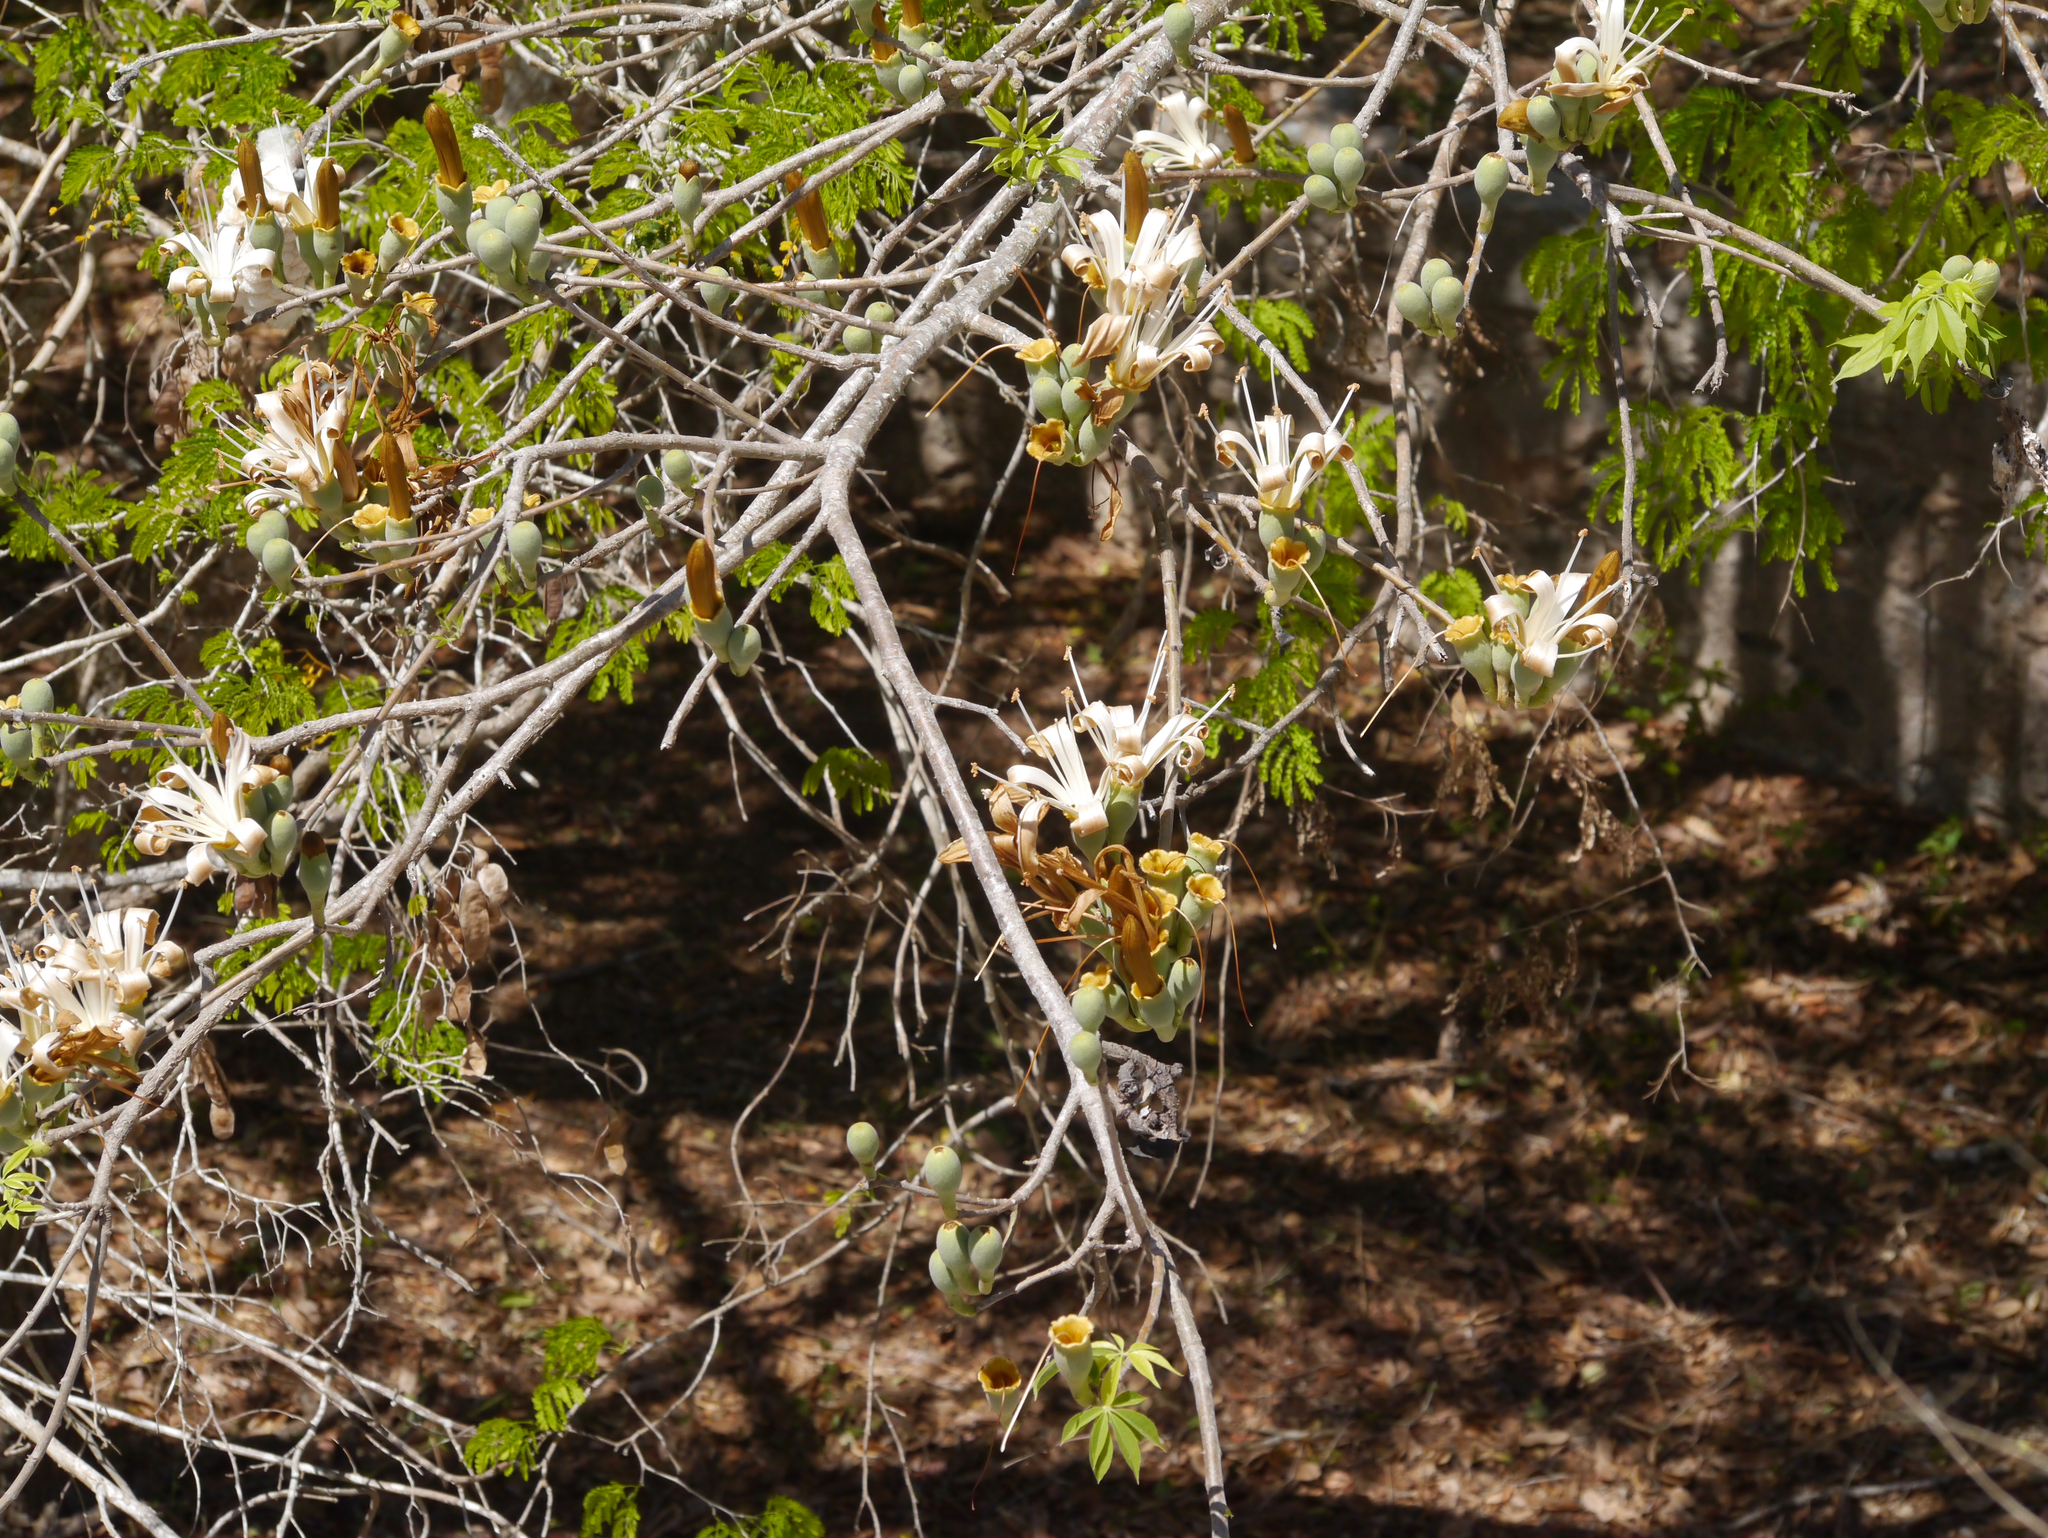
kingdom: Plantae
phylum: Tracheophyta
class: Magnoliopsida
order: Malvales
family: Malvaceae
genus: Ceiba
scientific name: Ceiba aesculifolia
